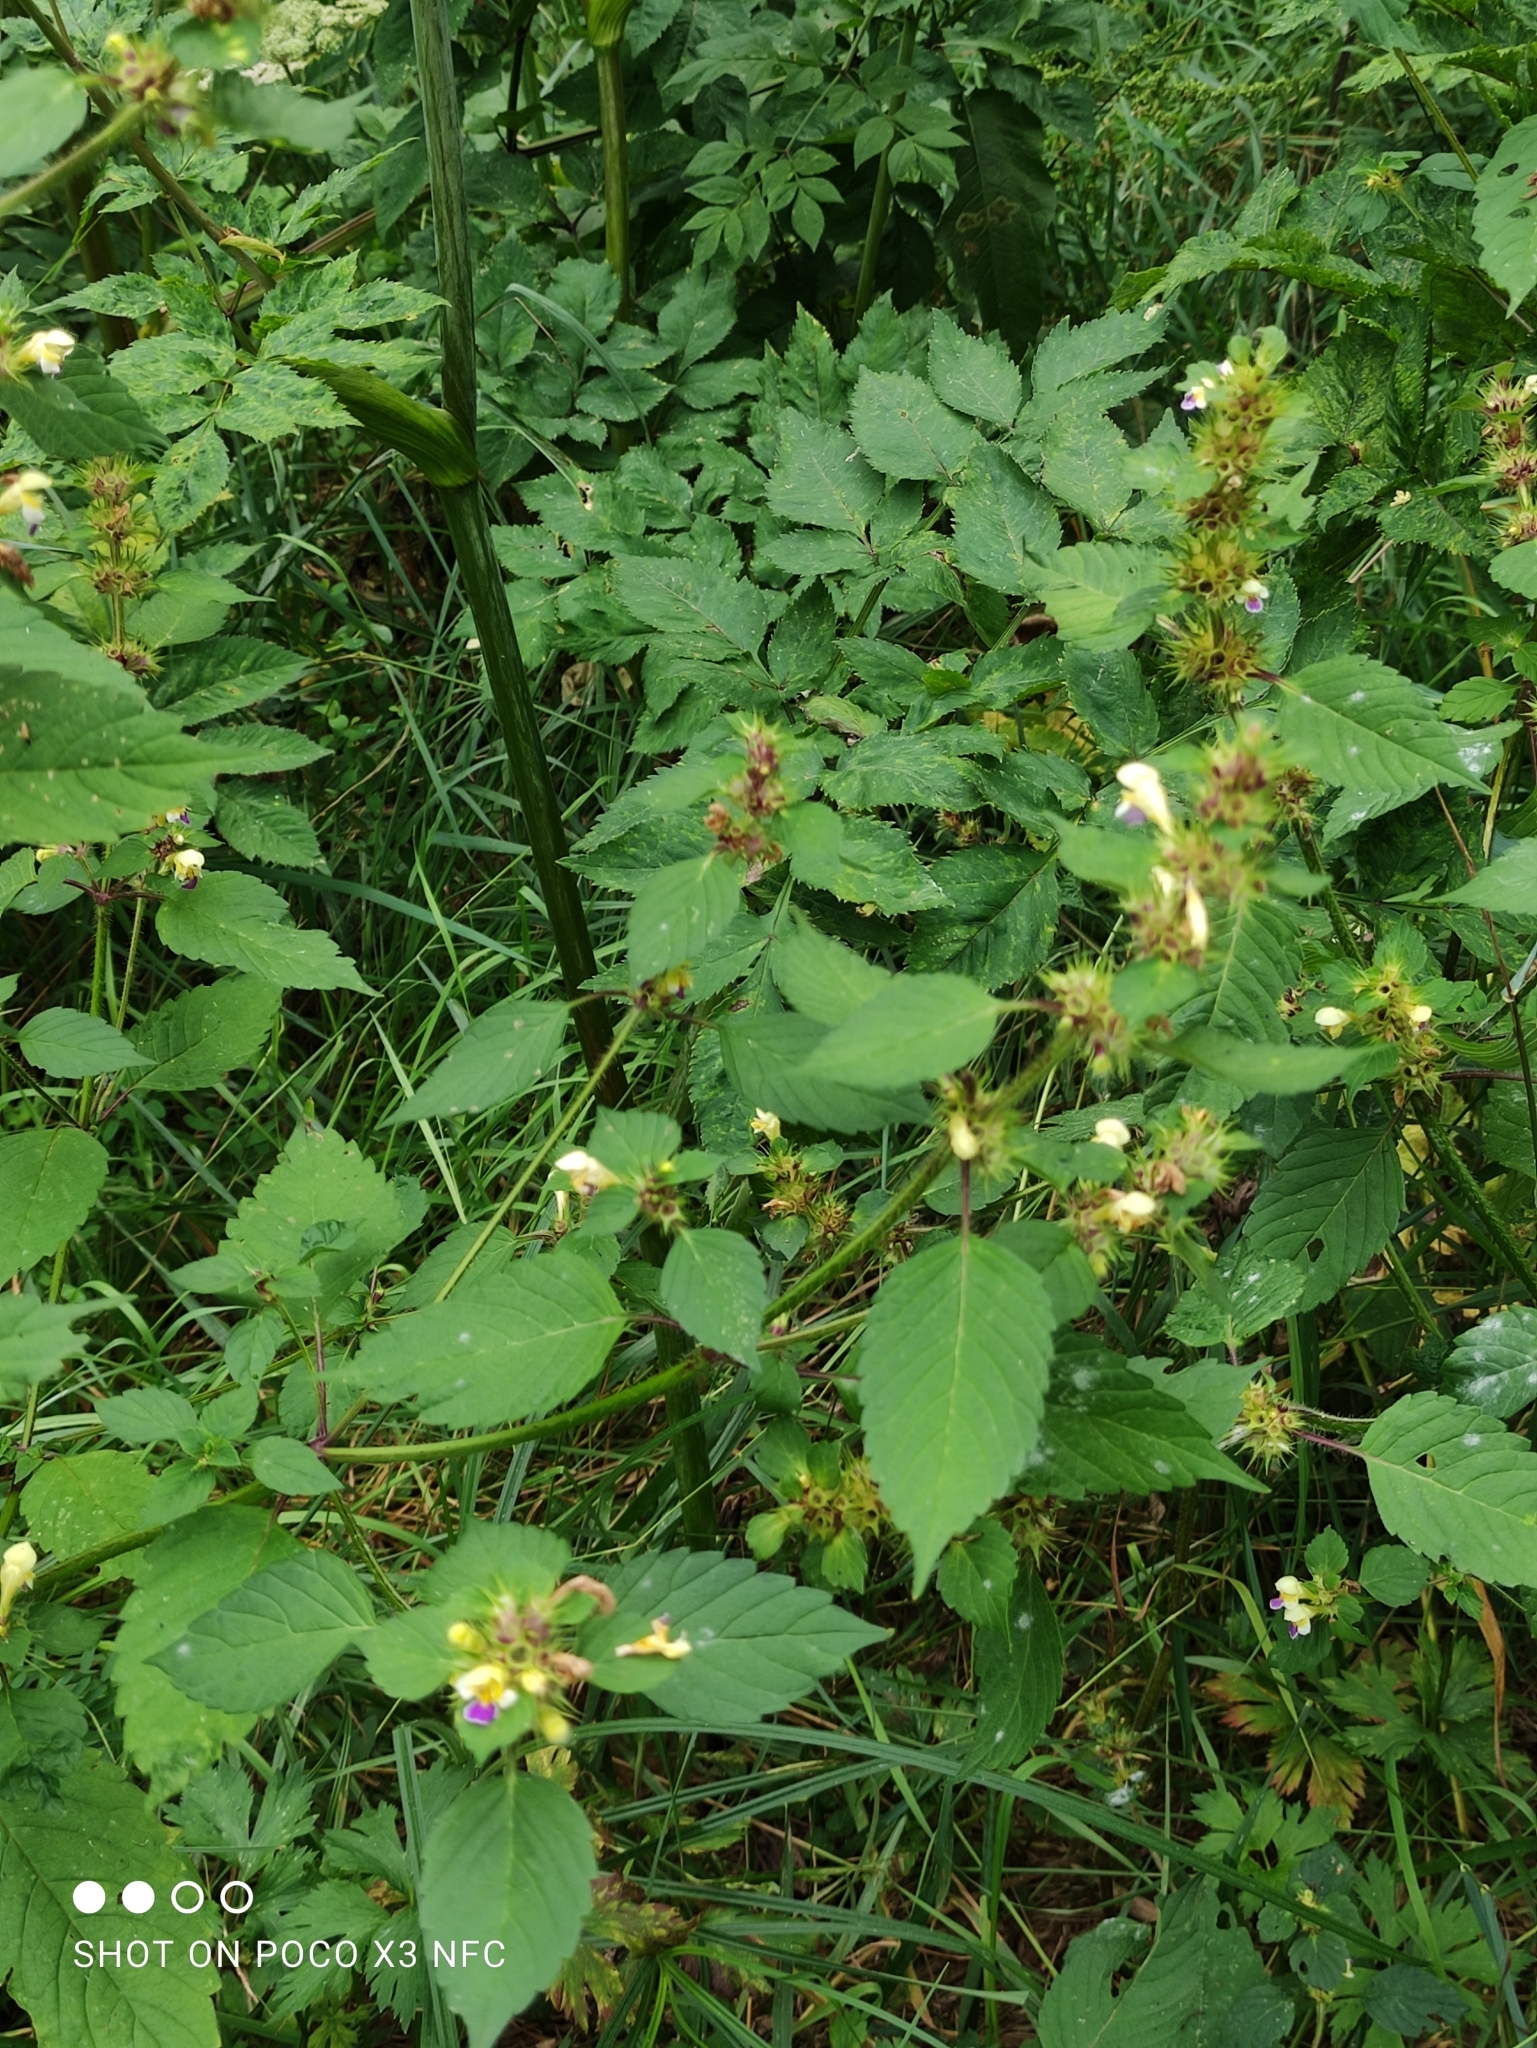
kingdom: Plantae
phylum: Tracheophyta
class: Magnoliopsida
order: Lamiales
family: Lamiaceae
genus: Galeopsis
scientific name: Galeopsis speciosa
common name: Large-flowered hemp-nettle
